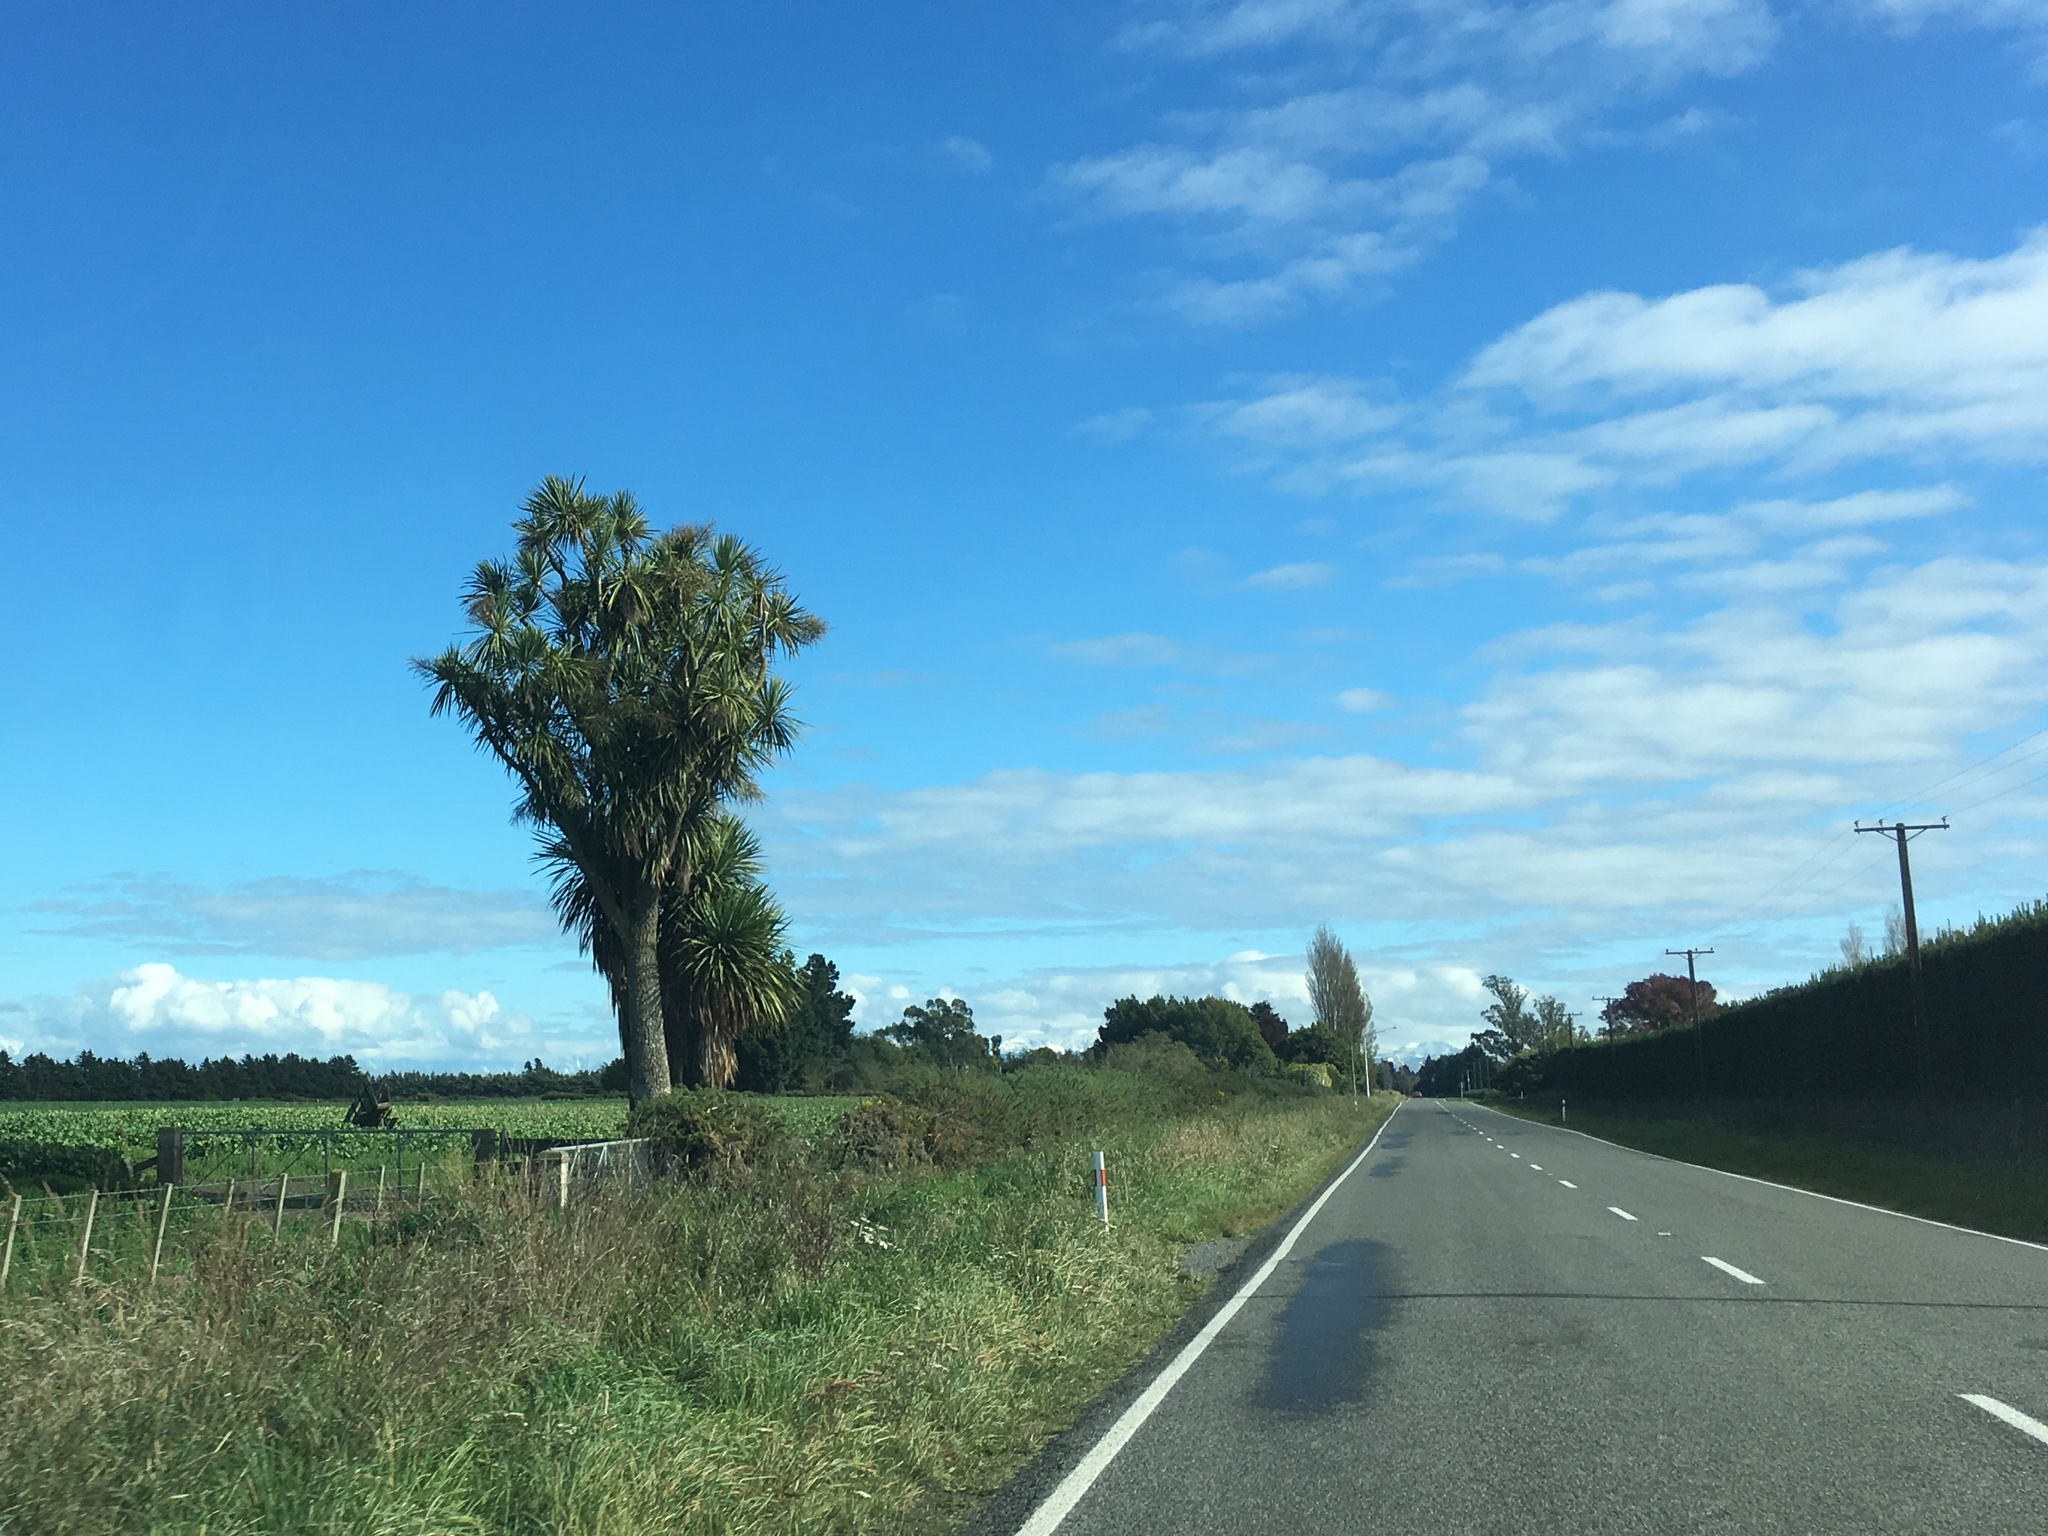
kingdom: Plantae
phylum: Tracheophyta
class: Liliopsida
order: Asparagales
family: Asparagaceae
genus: Cordyline
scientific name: Cordyline australis
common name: Cabbage-palm
